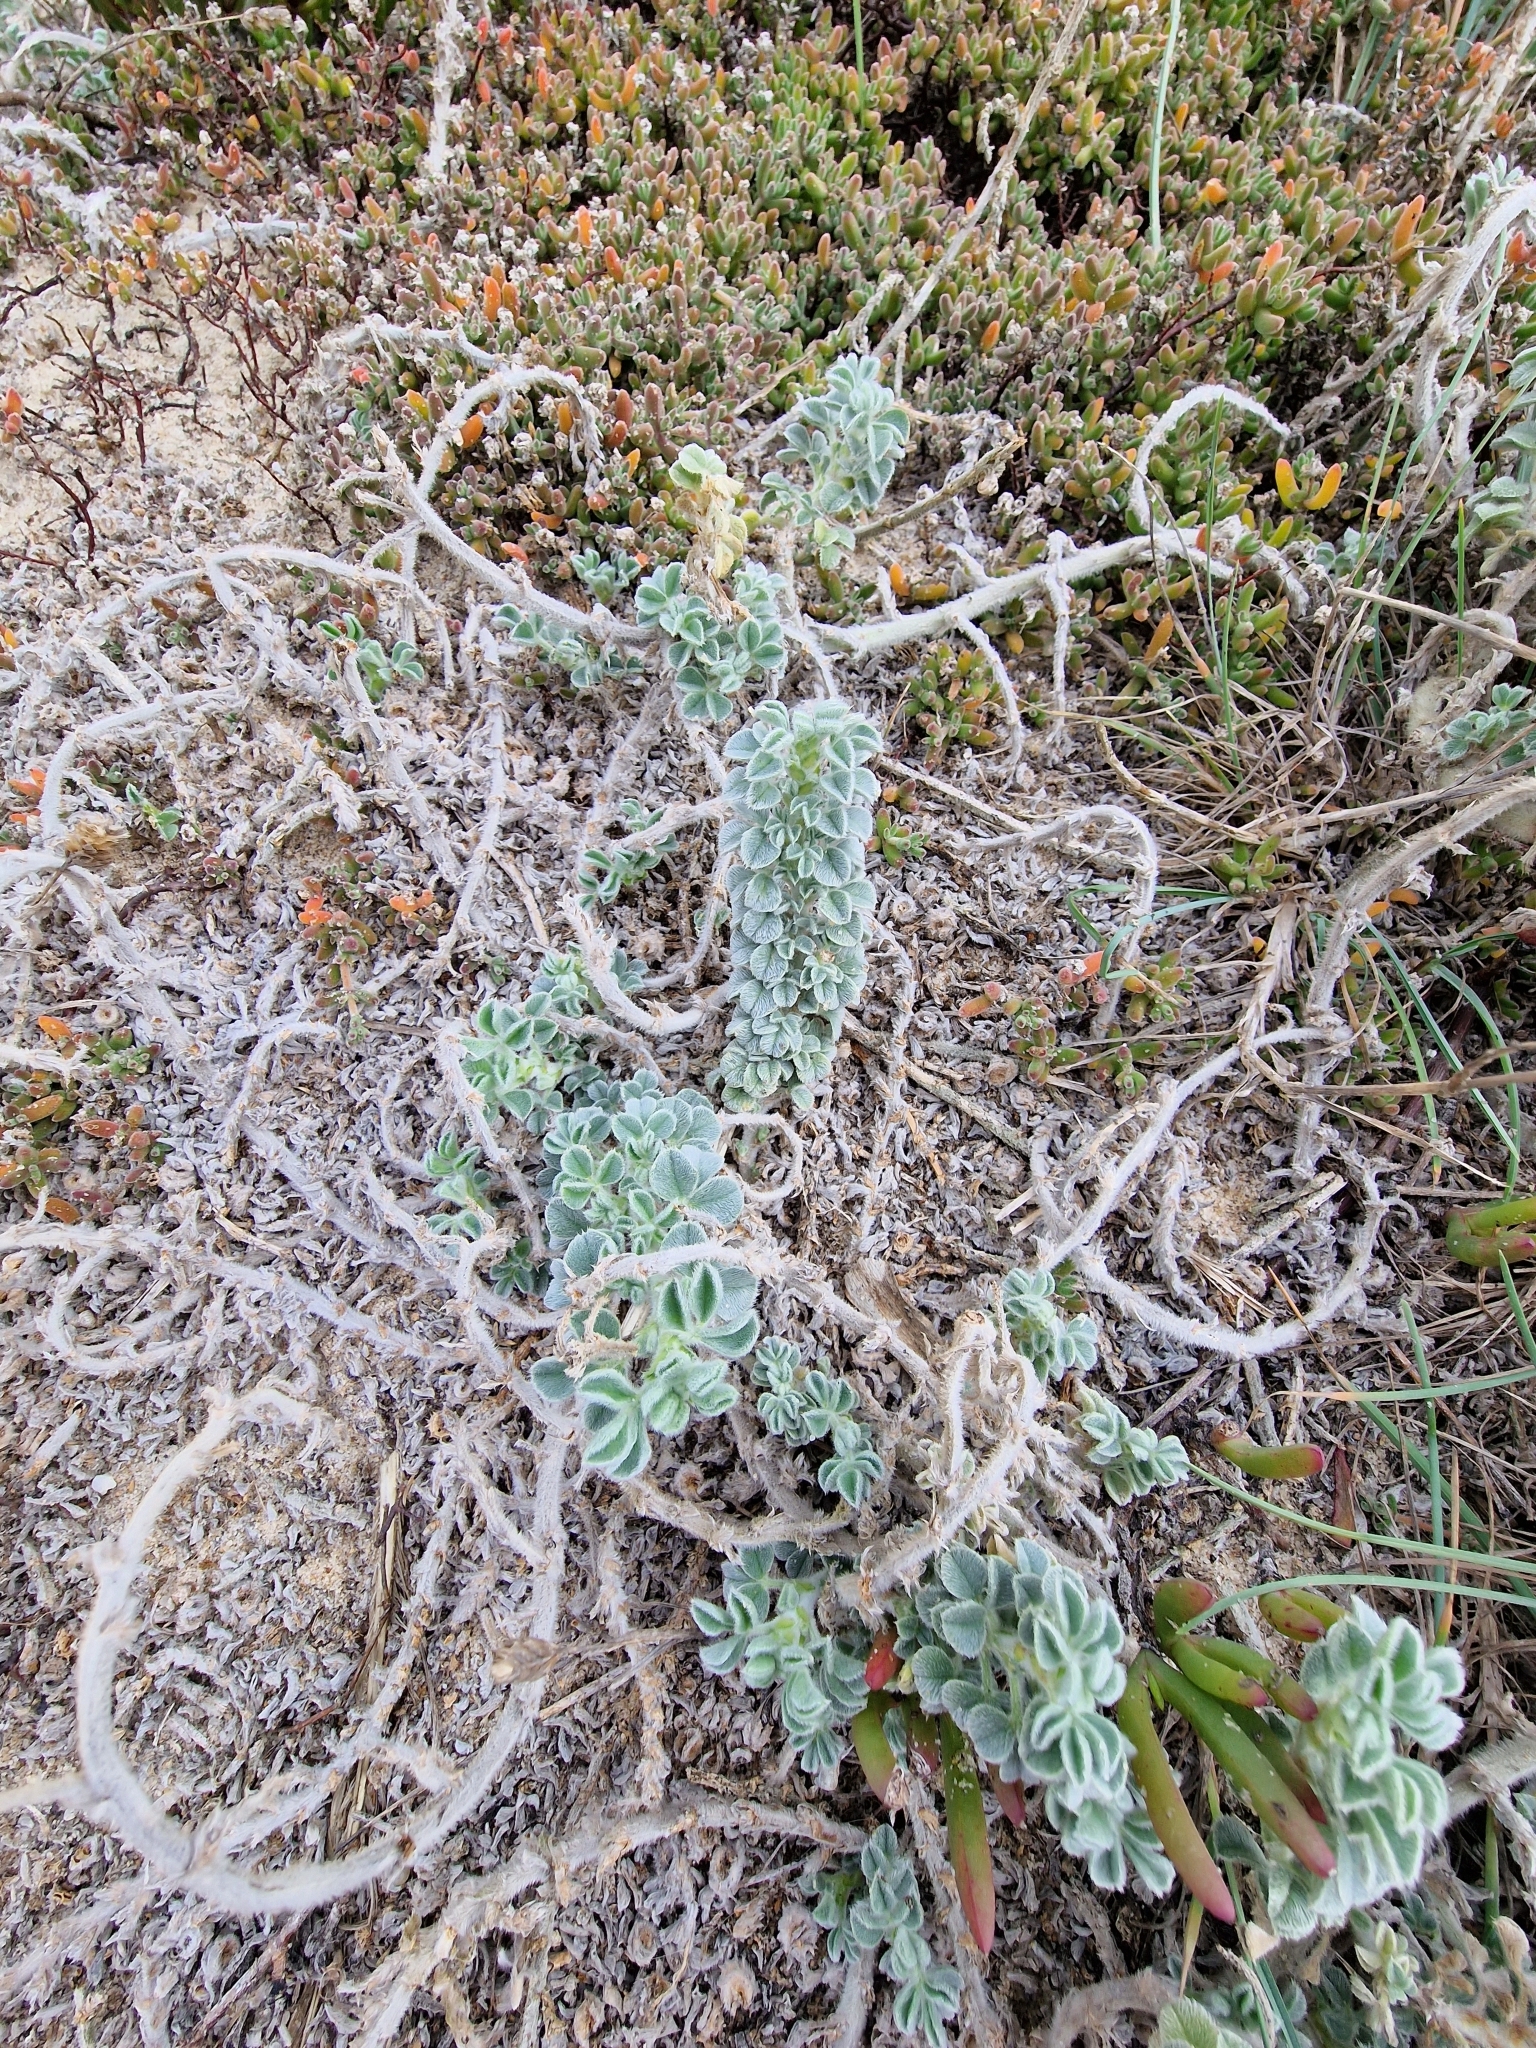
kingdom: Plantae
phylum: Tracheophyta
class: Magnoliopsida
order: Fabales
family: Fabaceae
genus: Medicago
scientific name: Medicago marina
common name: Sea medick
